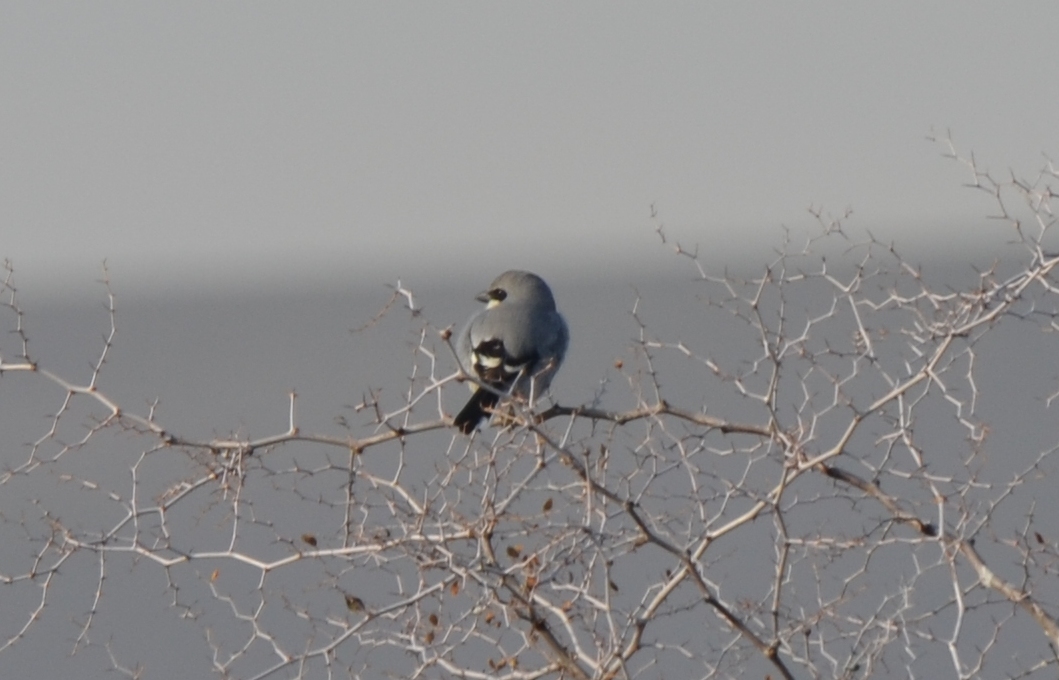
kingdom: Animalia
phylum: Chordata
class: Aves
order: Passeriformes
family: Laniidae
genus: Lanius
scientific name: Lanius excubitor
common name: Great grey shrike
